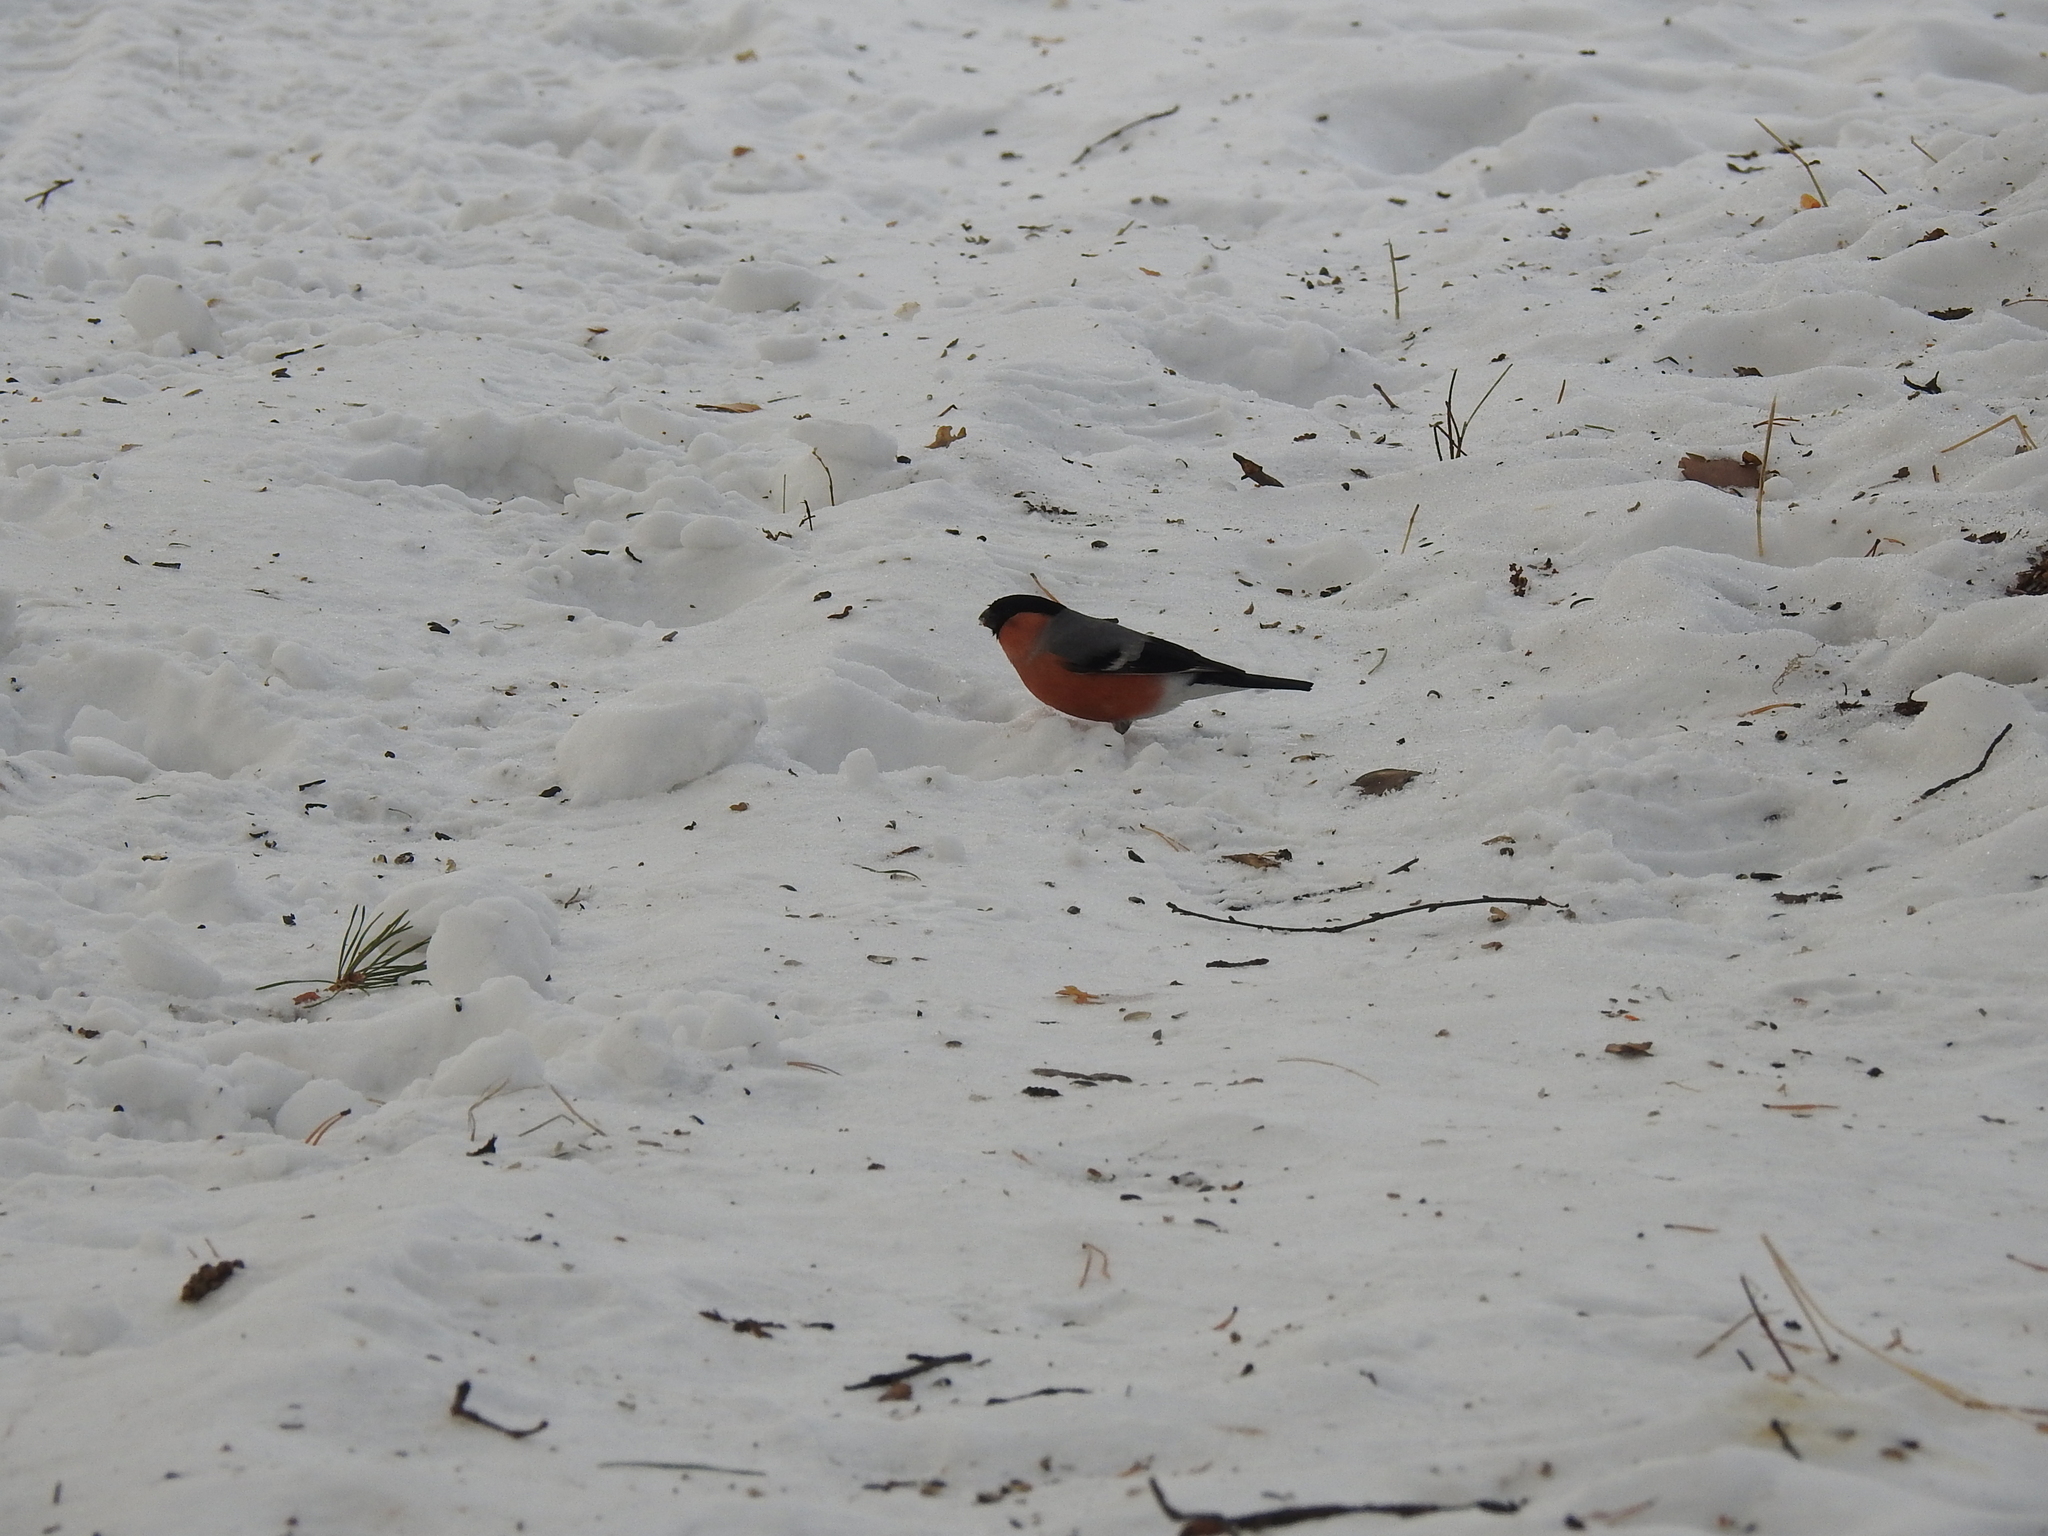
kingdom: Animalia
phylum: Chordata
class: Aves
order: Passeriformes
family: Fringillidae
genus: Pyrrhula
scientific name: Pyrrhula pyrrhula
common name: Eurasian bullfinch
